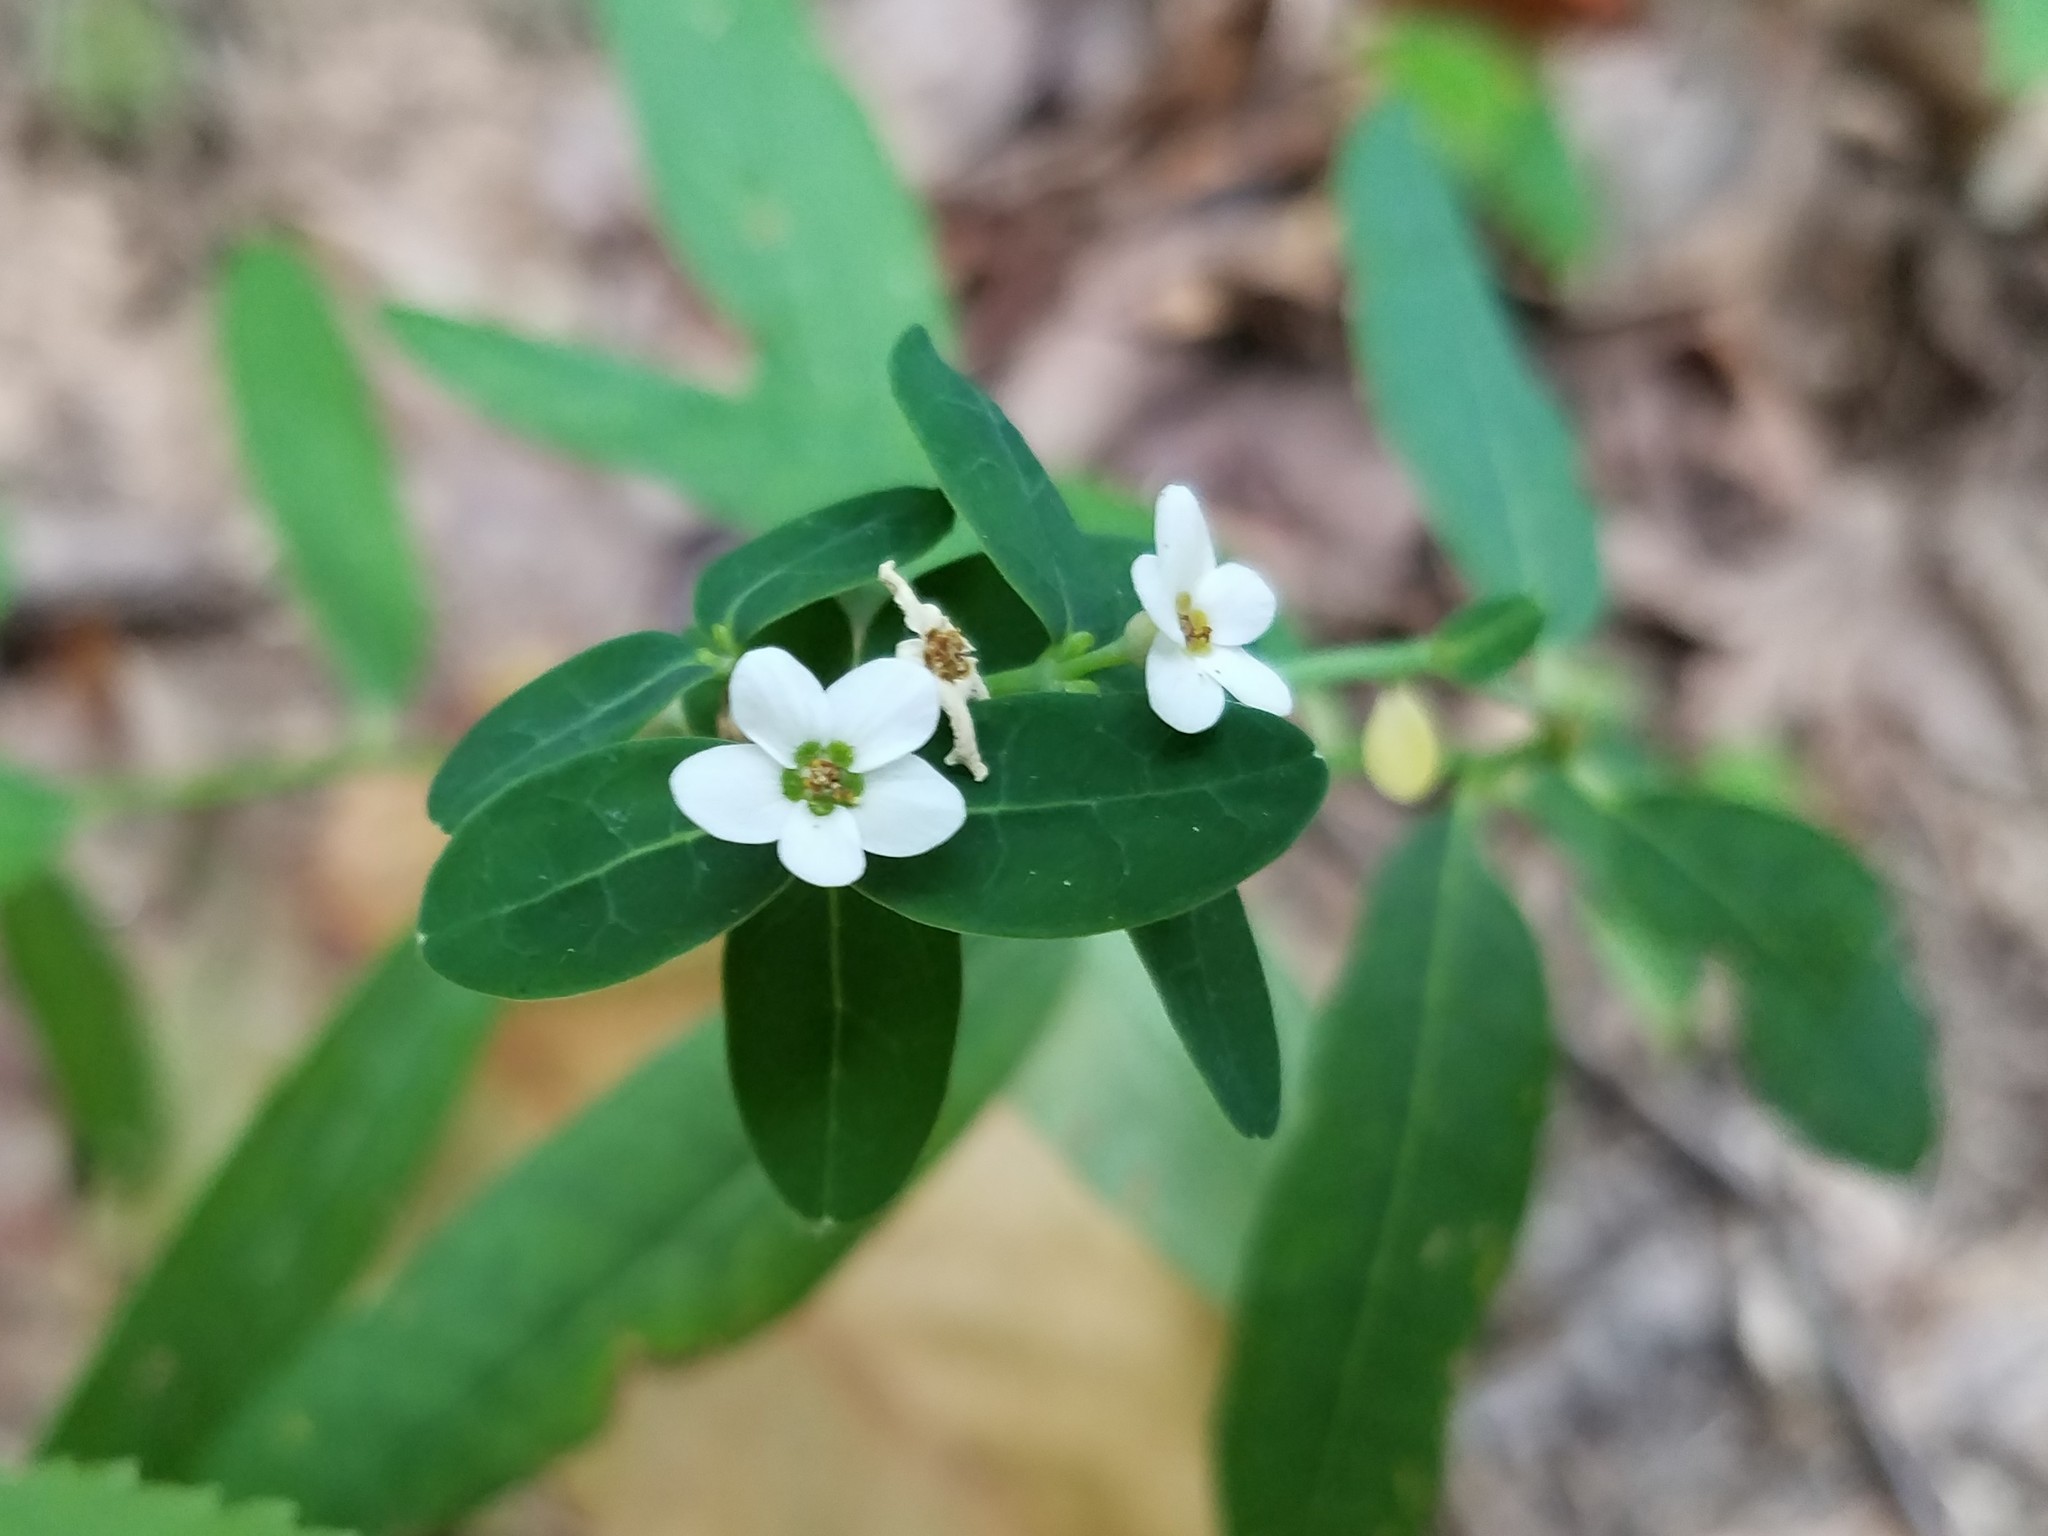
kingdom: Plantae
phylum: Tracheophyta
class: Magnoliopsida
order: Malpighiales
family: Euphorbiaceae
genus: Euphorbia
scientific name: Euphorbia corollata
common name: Flowering spurge
